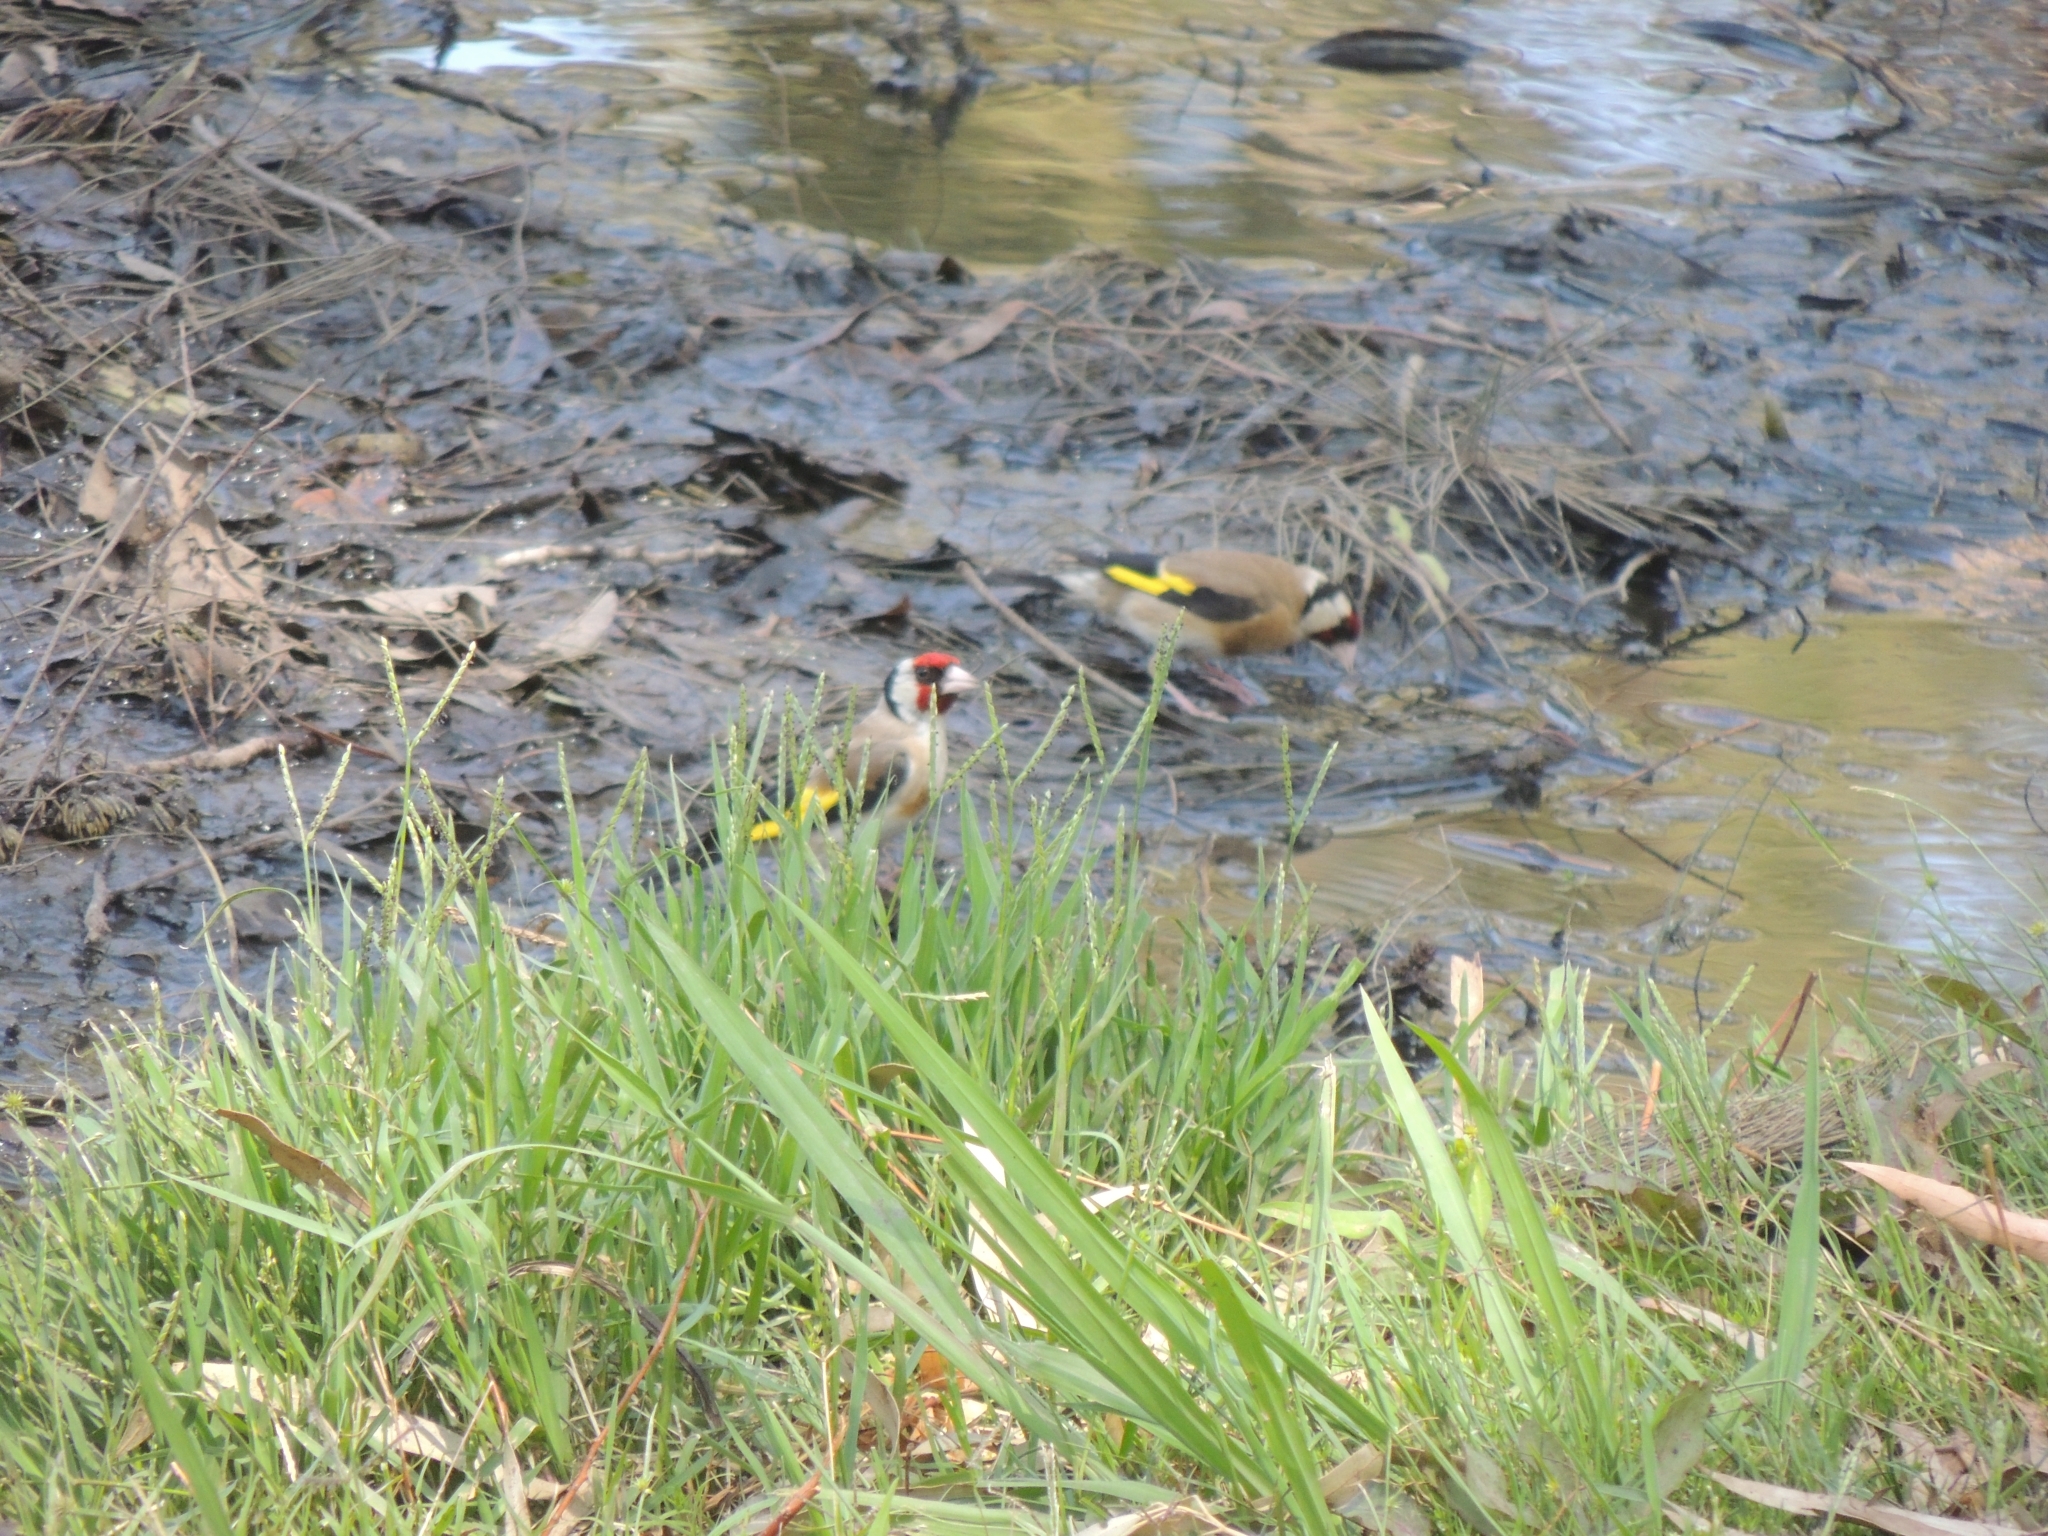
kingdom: Animalia
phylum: Chordata
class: Aves
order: Passeriformes
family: Fringillidae
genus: Carduelis
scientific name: Carduelis carduelis
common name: European goldfinch
